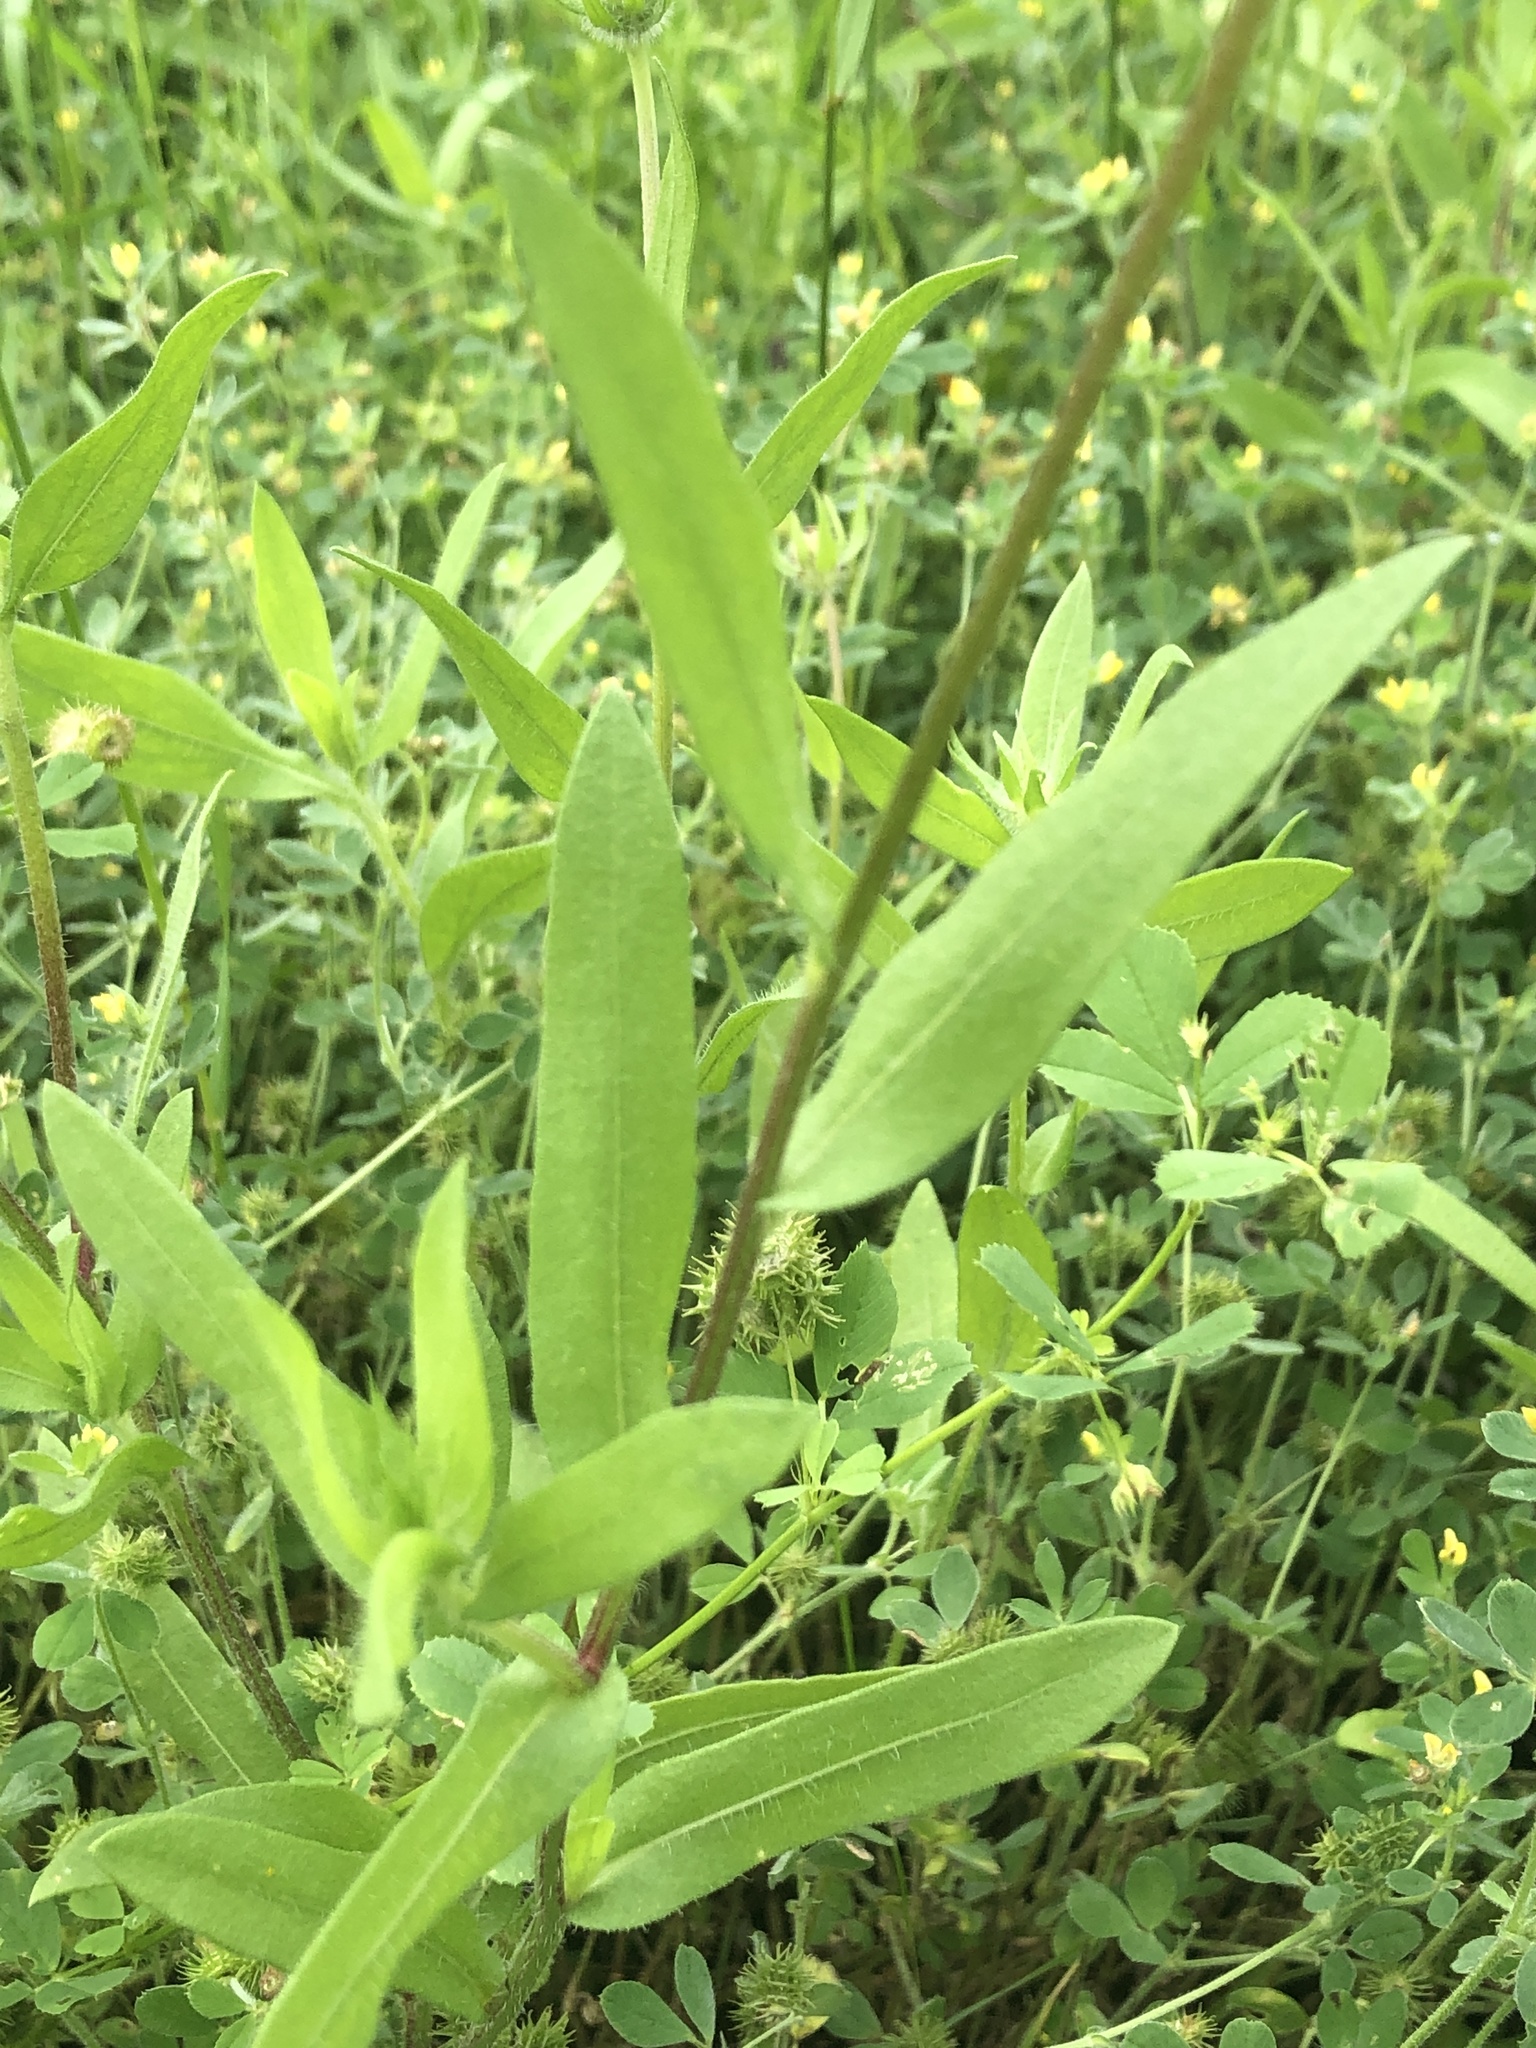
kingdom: Plantae
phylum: Tracheophyta
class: Magnoliopsida
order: Asterales
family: Asteraceae
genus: Gaillardia
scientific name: Gaillardia pulchella
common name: Firewheel
